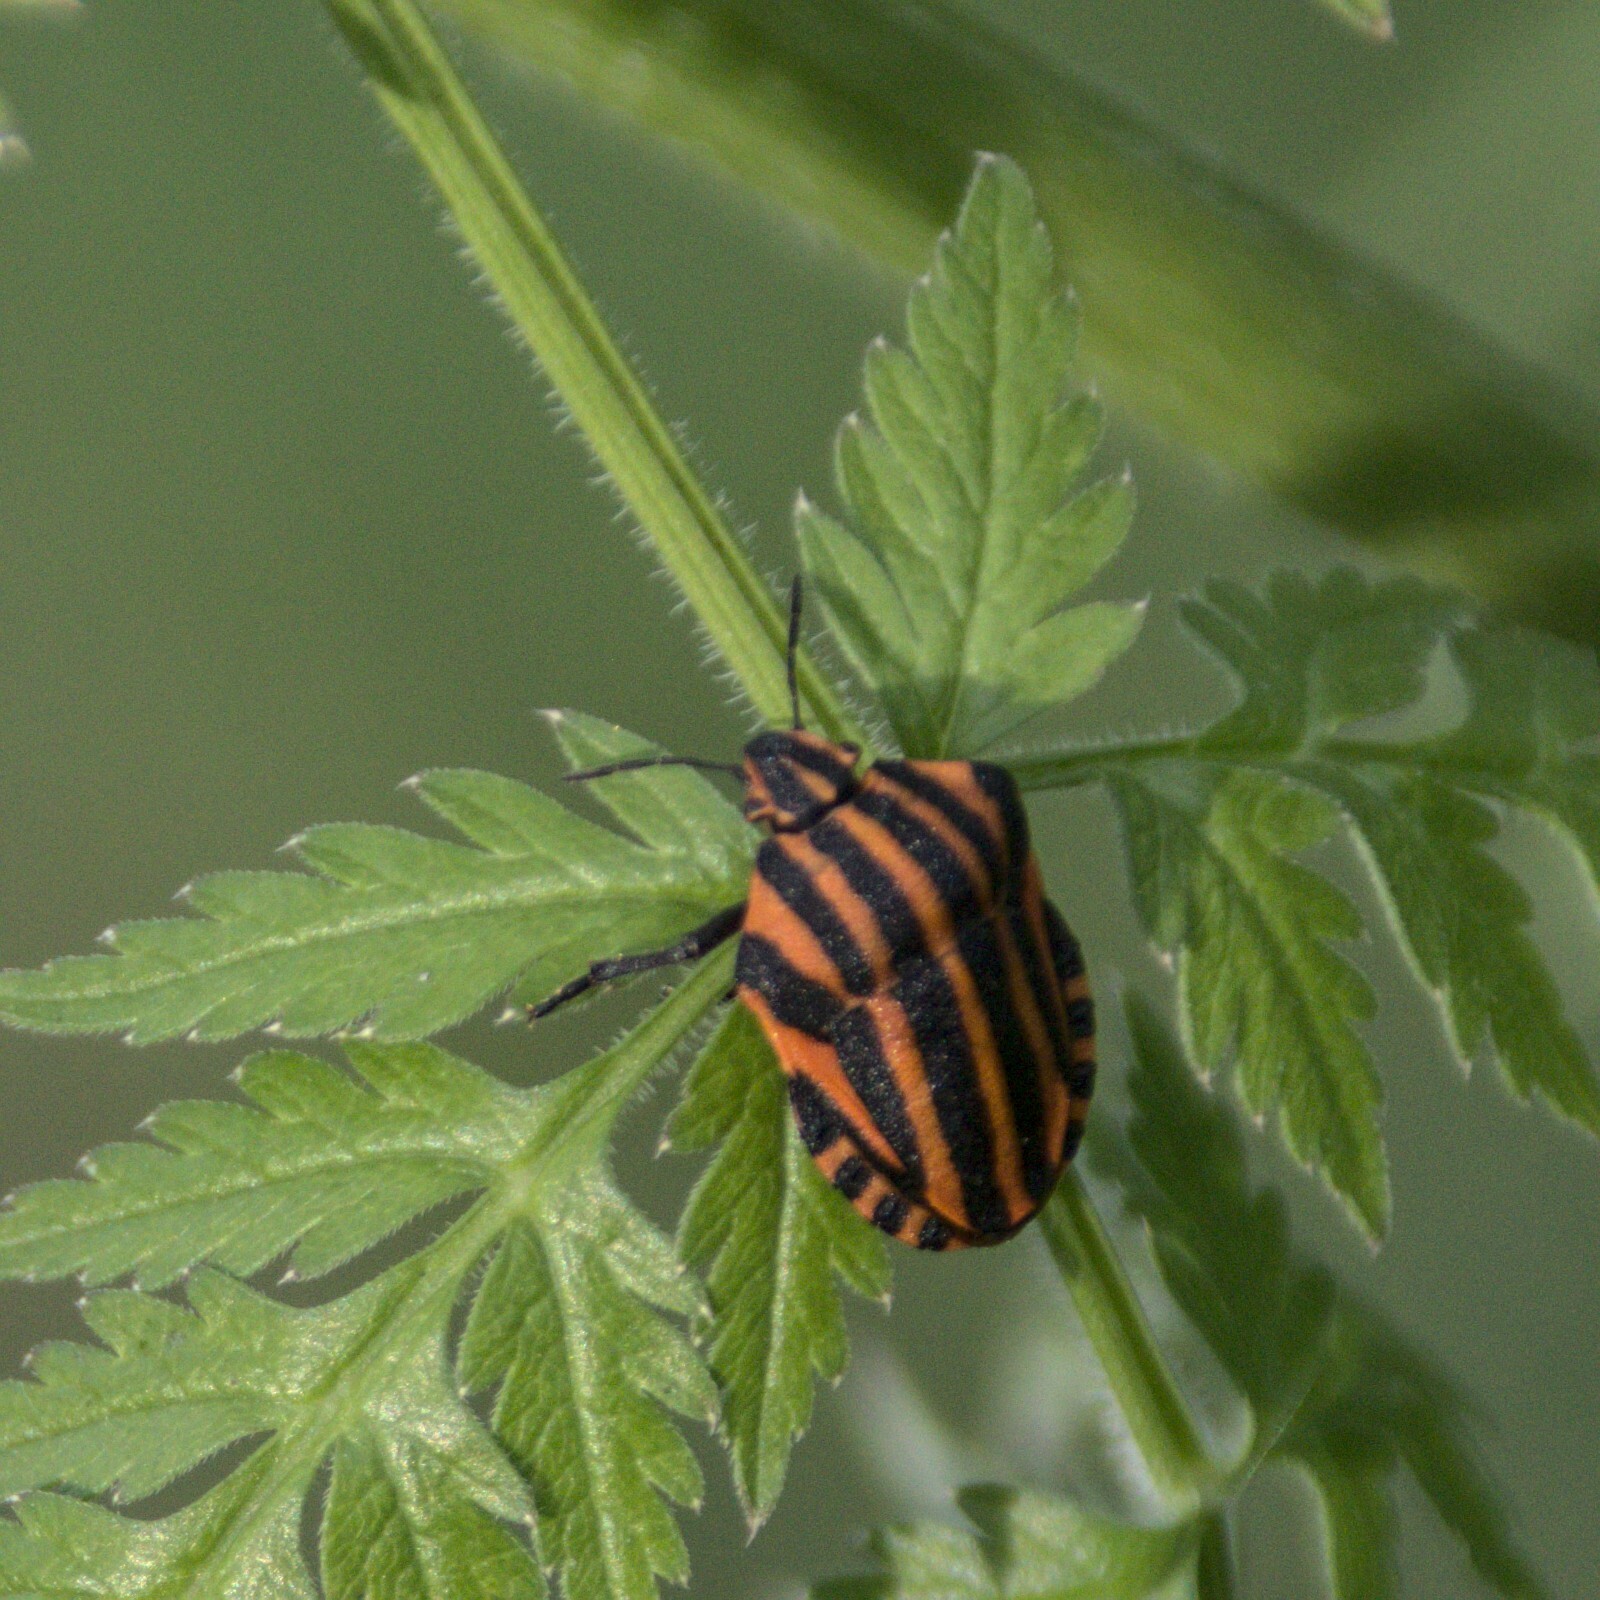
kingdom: Animalia
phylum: Arthropoda
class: Insecta
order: Hemiptera
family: Pentatomidae
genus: Graphosoma
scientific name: Graphosoma italicum
